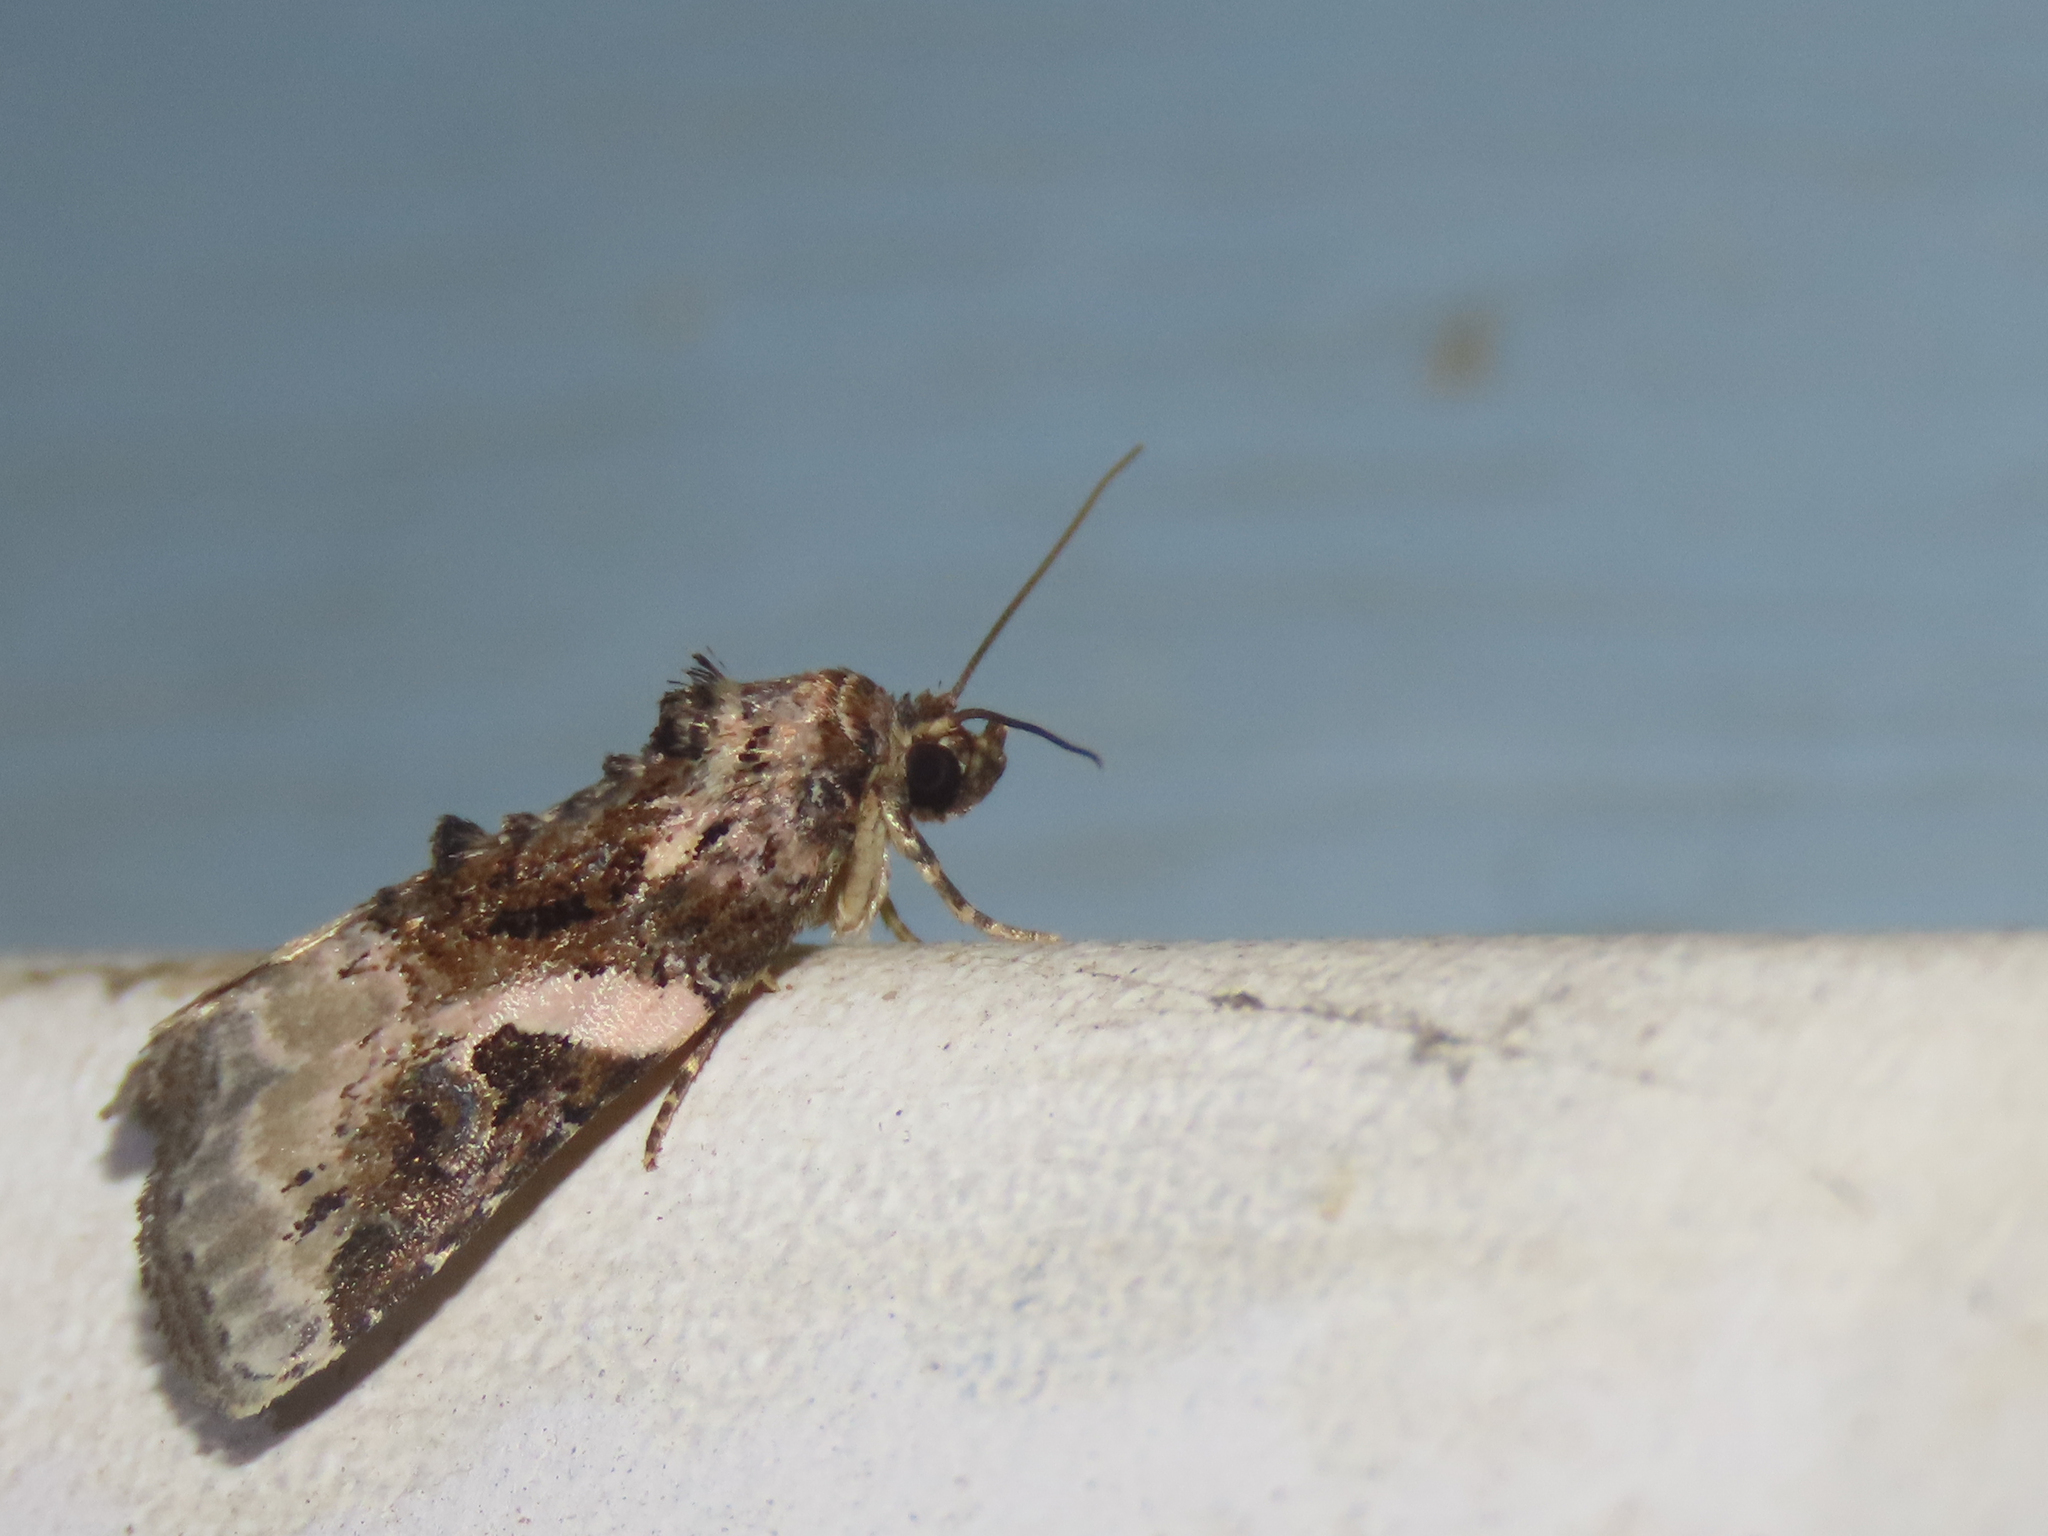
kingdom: Animalia
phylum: Arthropoda
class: Insecta
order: Lepidoptera
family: Noctuidae
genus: Pseudeustrotia
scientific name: Pseudeustrotia carneola
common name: Pink-barred lithacodia moth
